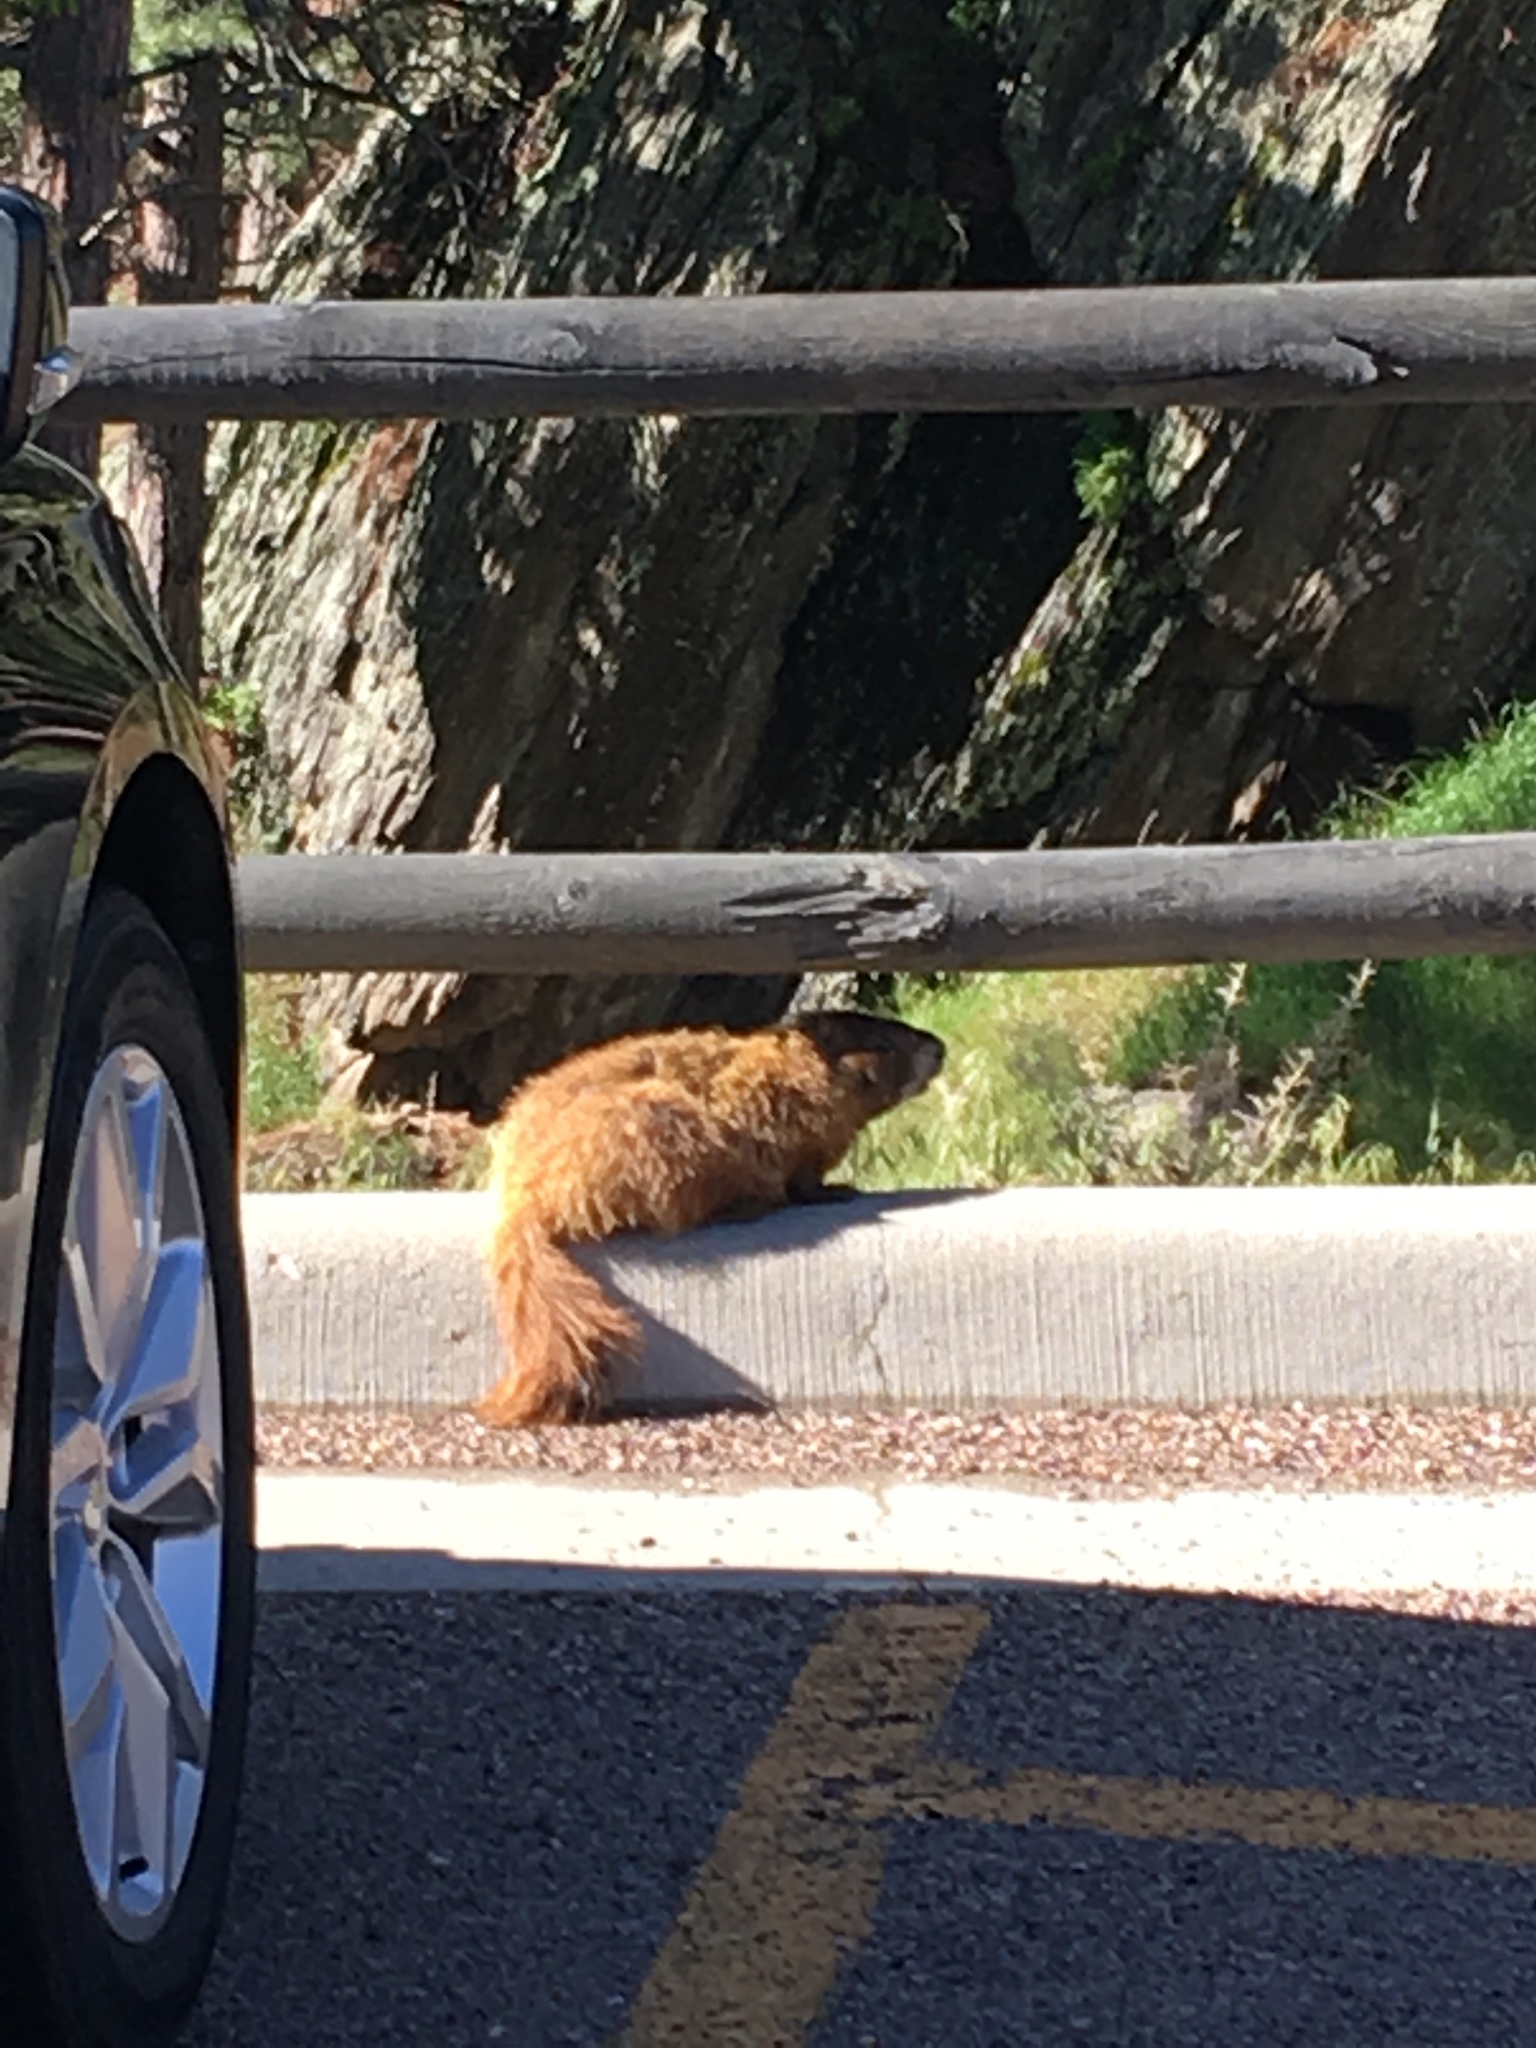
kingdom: Animalia
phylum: Chordata
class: Mammalia
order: Rodentia
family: Sciuridae
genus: Marmota
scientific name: Marmota flaviventris
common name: Yellow-bellied marmot
